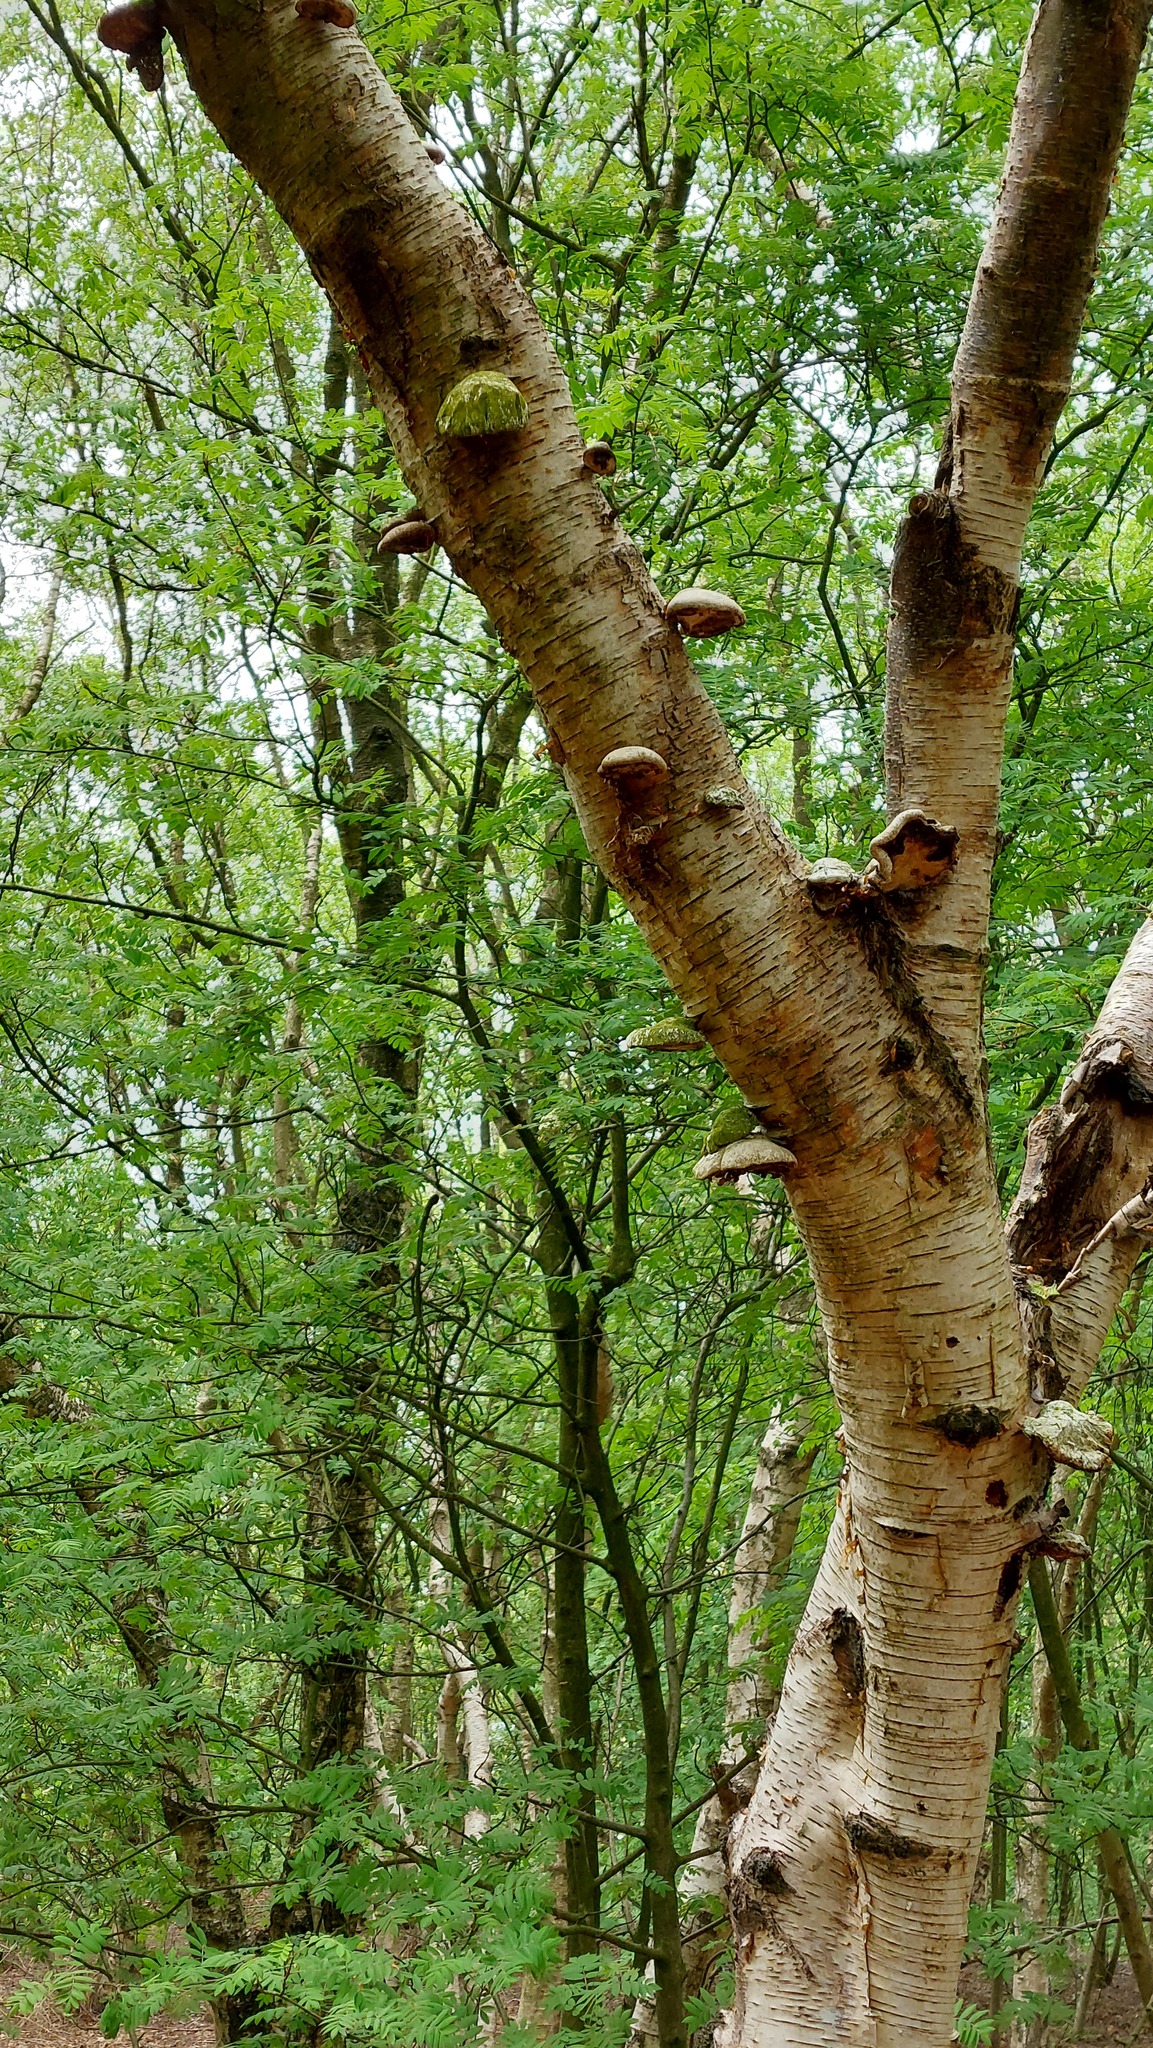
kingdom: Fungi
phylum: Basidiomycota
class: Agaricomycetes
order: Polyporales
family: Fomitopsidaceae
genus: Fomitopsis
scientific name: Fomitopsis betulina
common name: Birch polypore
